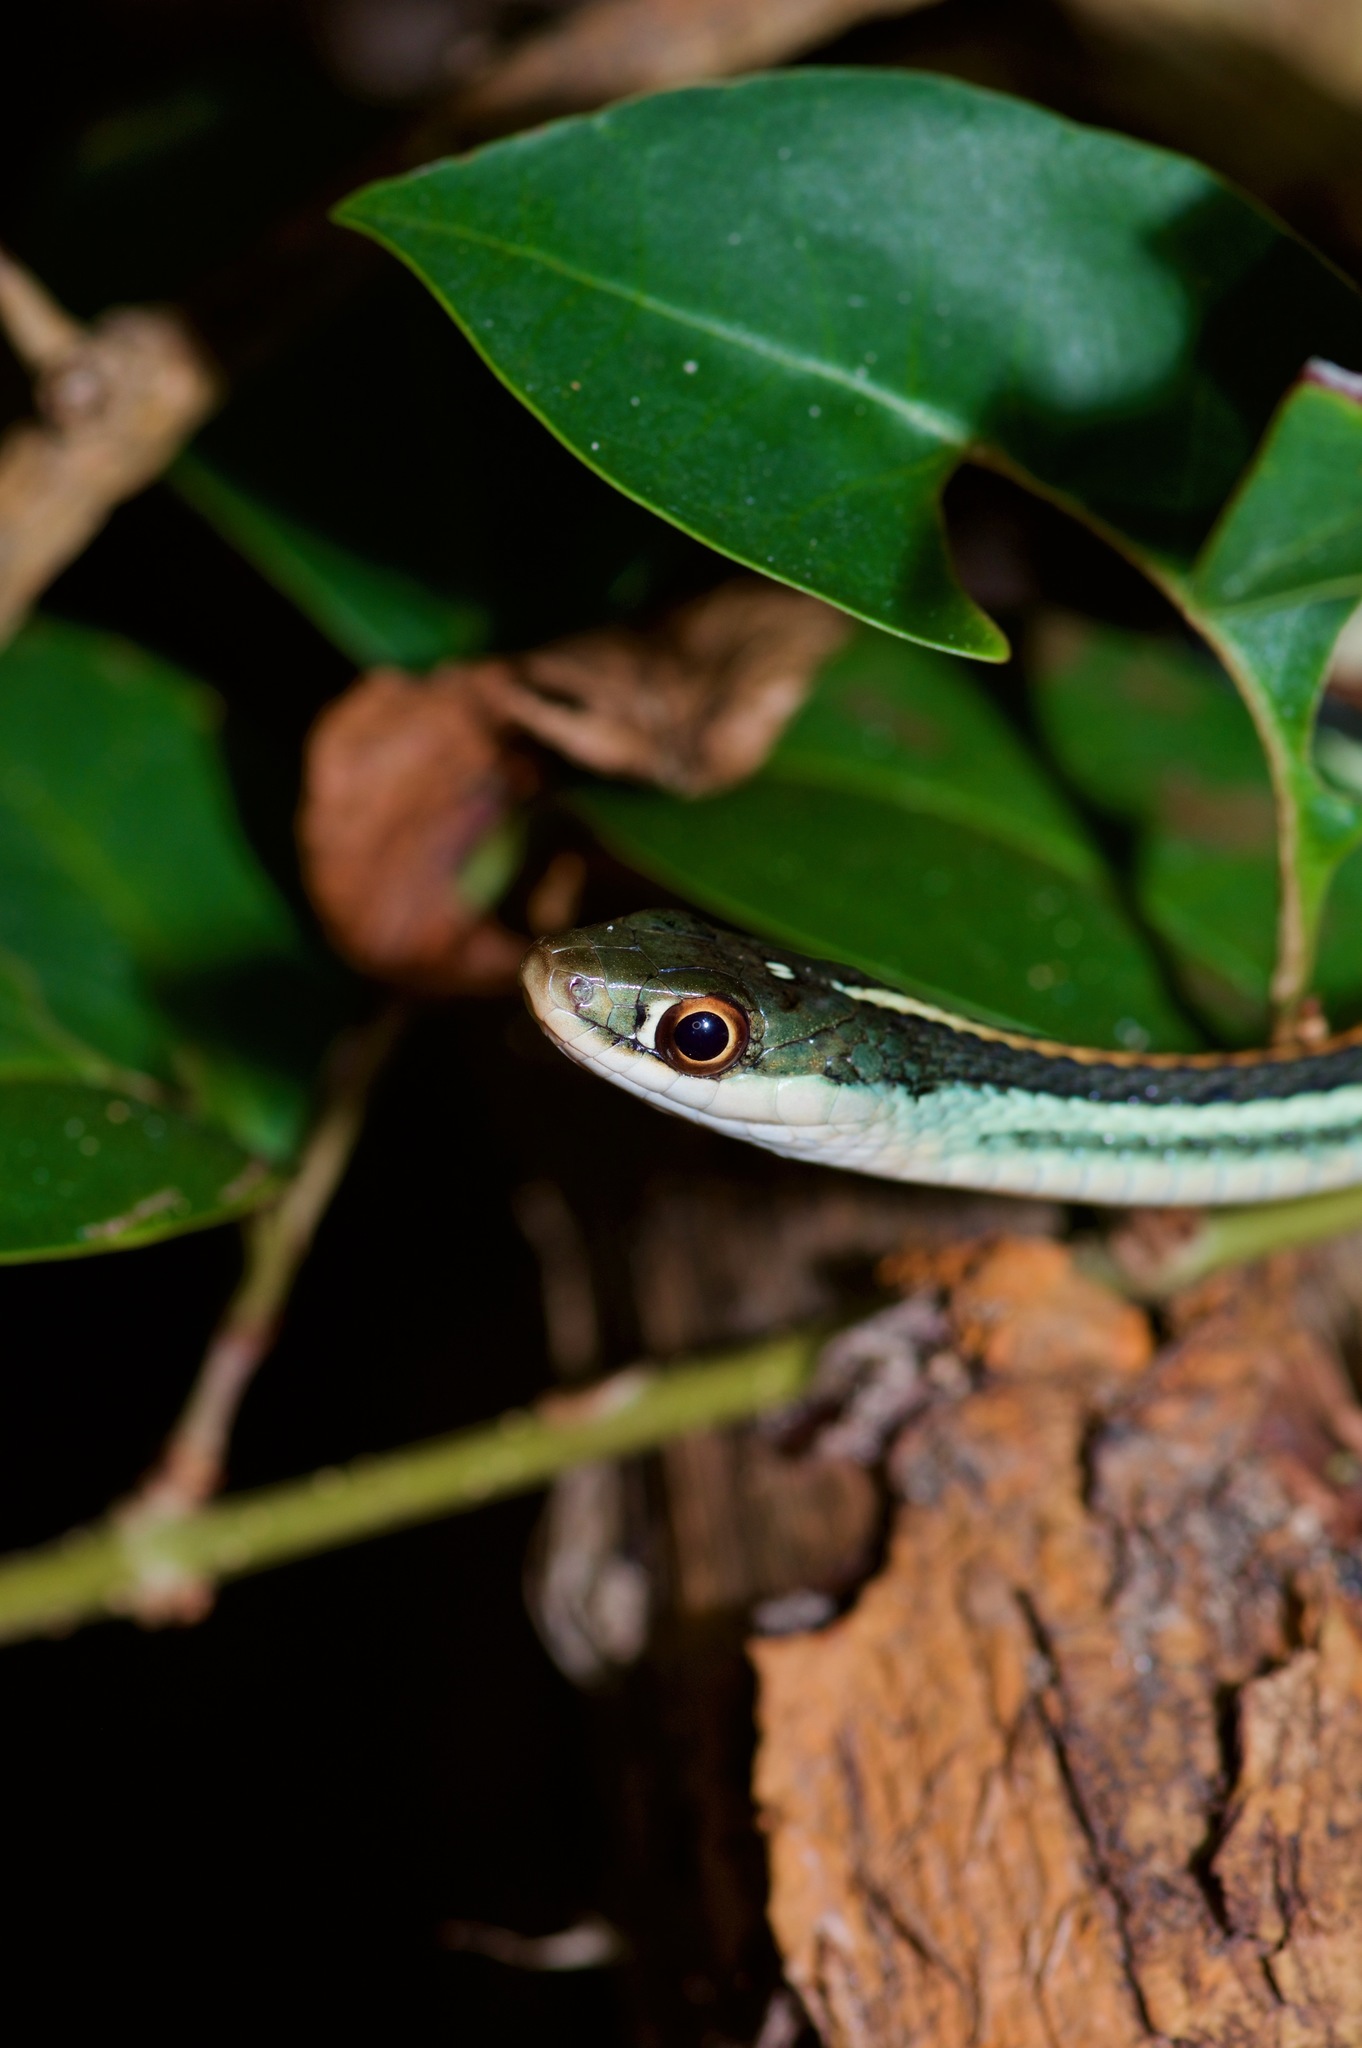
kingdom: Animalia
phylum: Chordata
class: Squamata
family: Colubridae
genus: Thamnophis
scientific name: Thamnophis proximus
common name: Western ribbon snake
